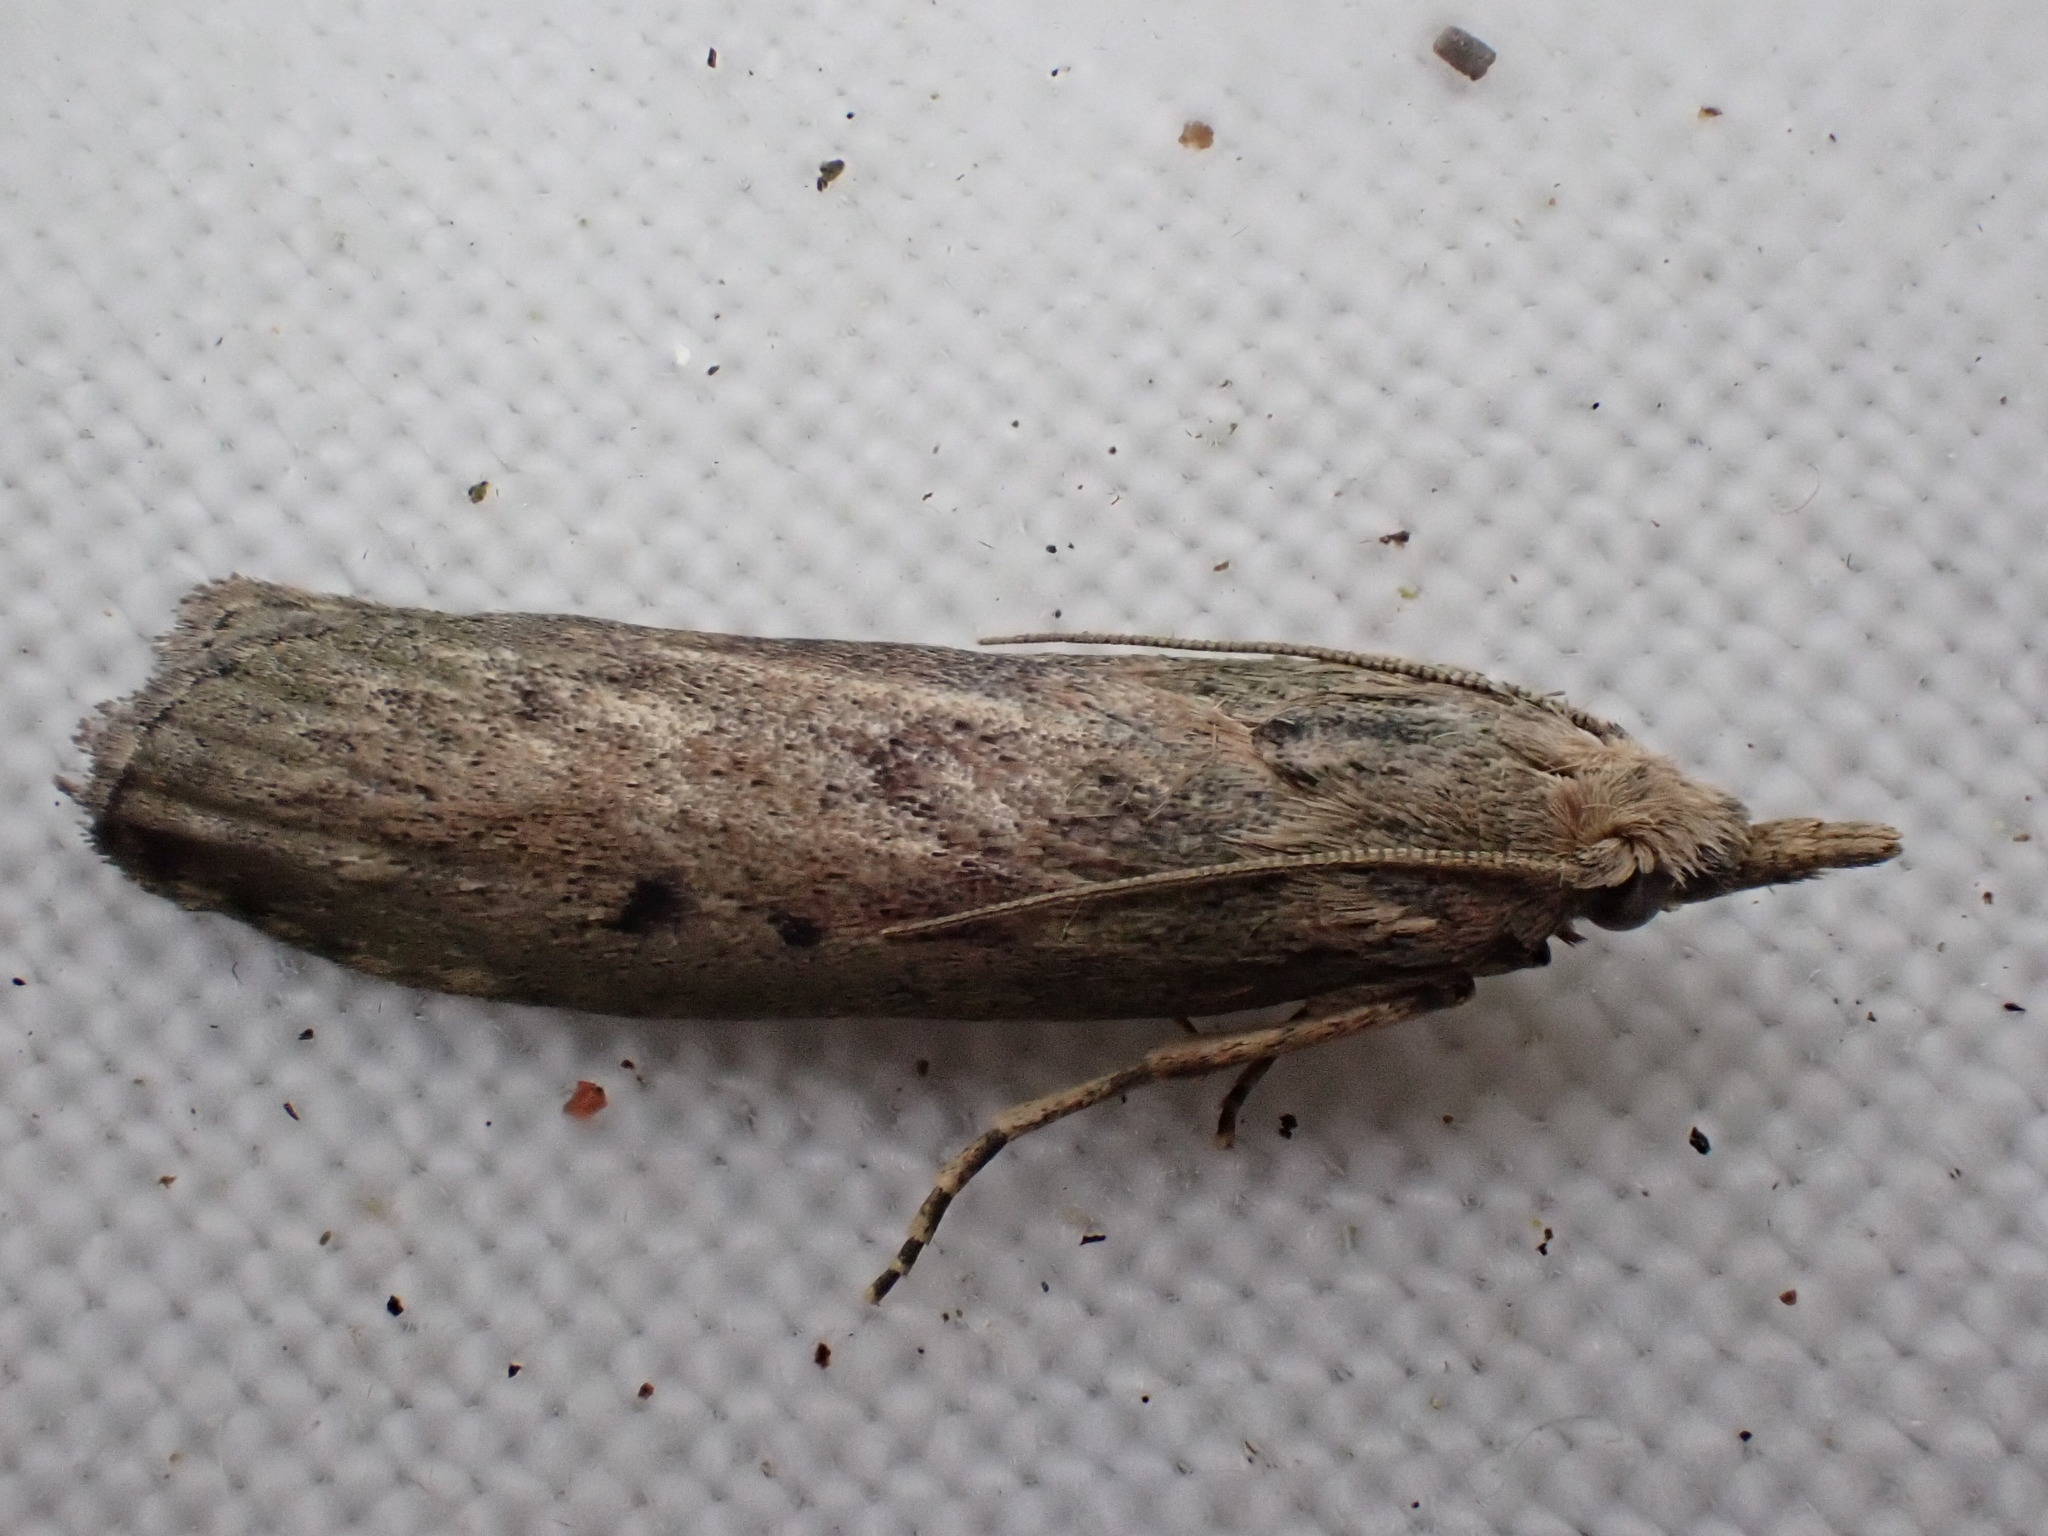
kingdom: Animalia
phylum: Arthropoda
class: Insecta
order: Lepidoptera
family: Pyralidae
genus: Aphomia
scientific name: Aphomia sociella
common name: Bee moth
